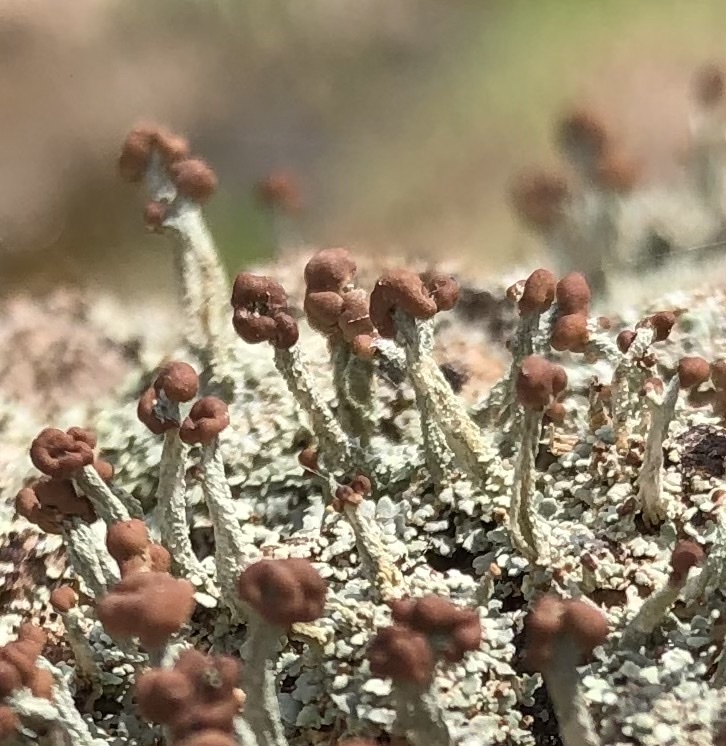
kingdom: Fungi
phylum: Ascomycota
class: Lecanoromycetes
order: Lecanorales
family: Cladoniaceae
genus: Cladonia
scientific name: Cladonia peziziformis
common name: Cup lichen
